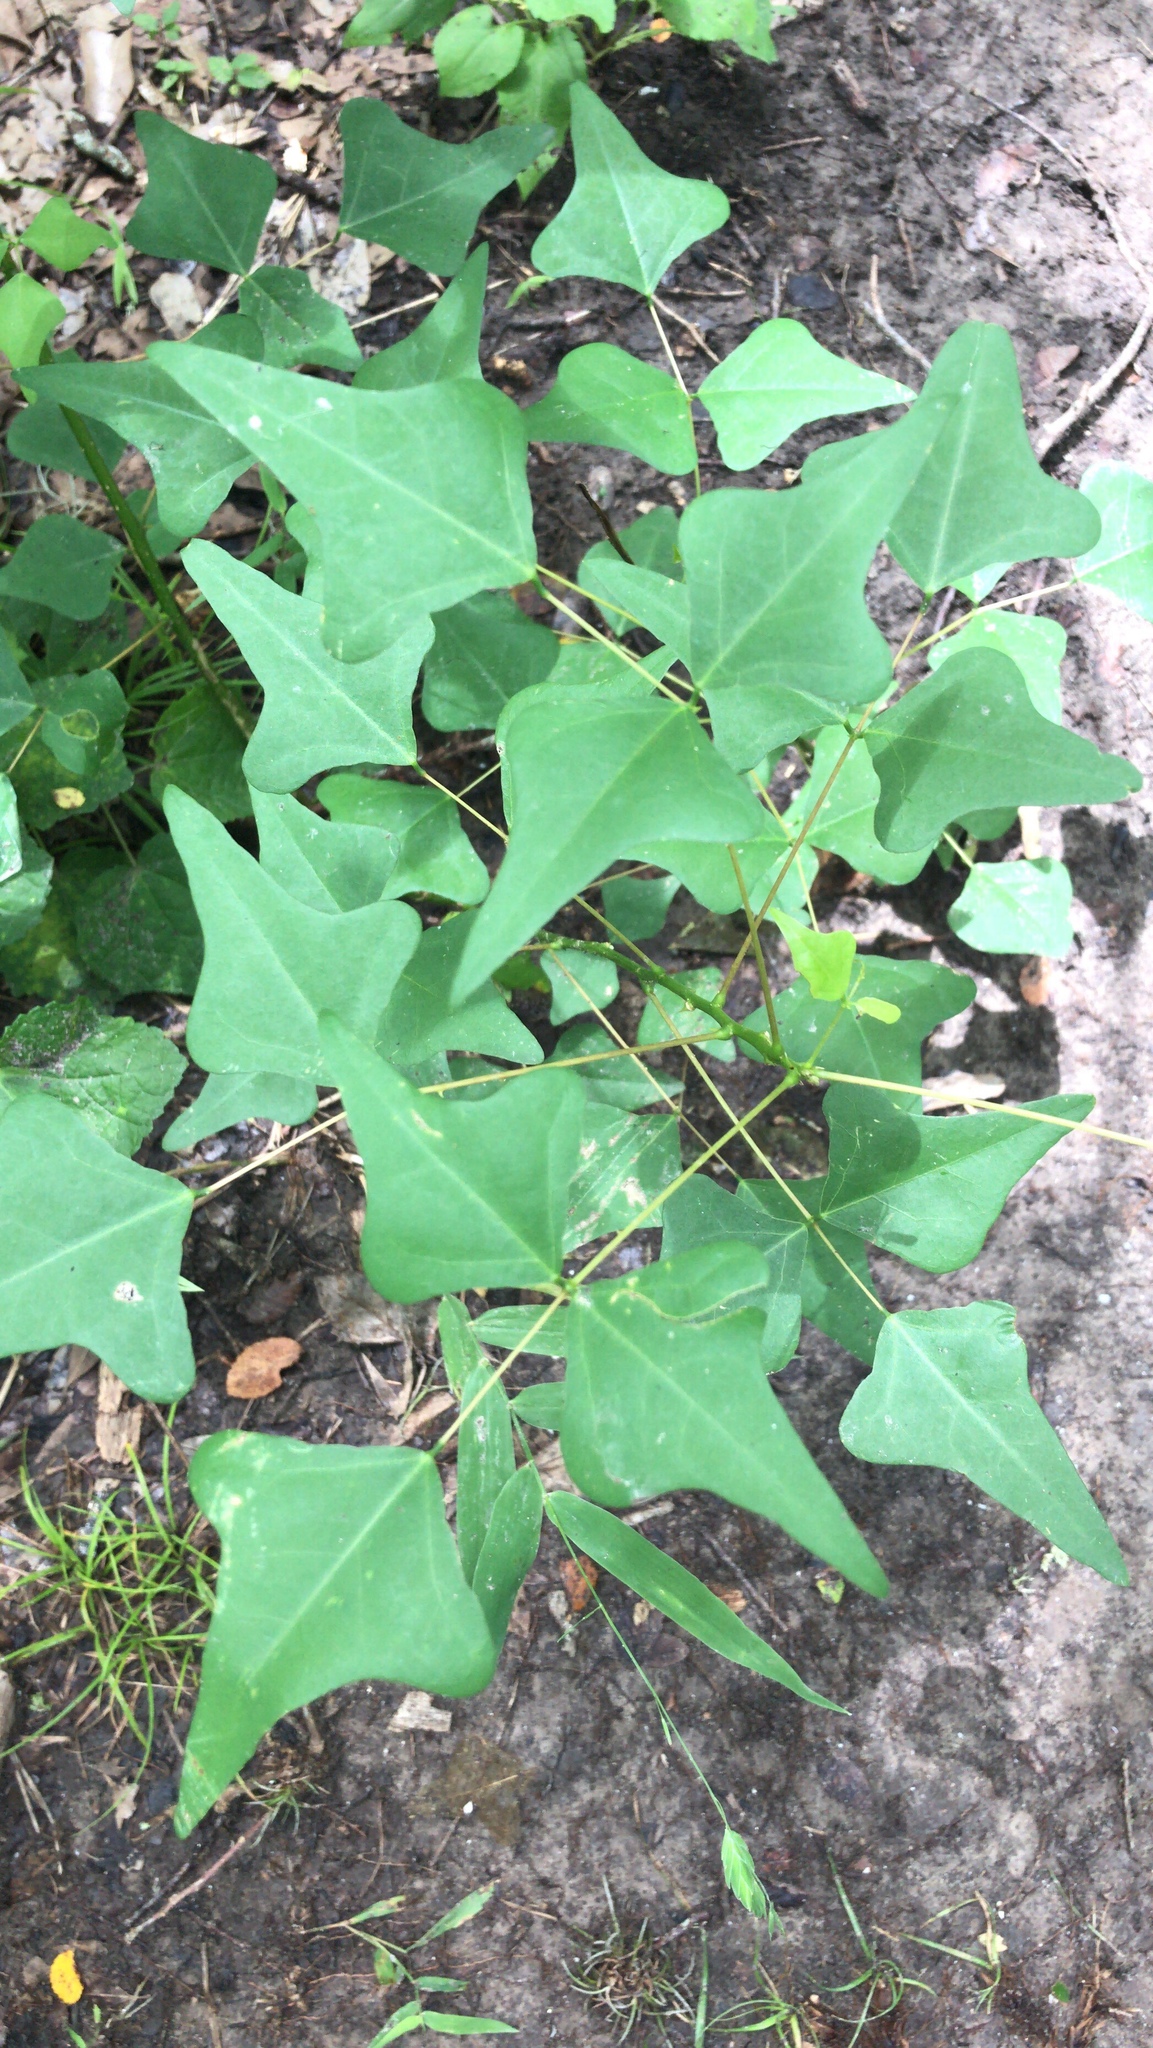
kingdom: Plantae
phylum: Tracheophyta
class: Magnoliopsida
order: Fabales
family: Fabaceae
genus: Erythrina
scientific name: Erythrina herbacea
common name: Coral-bean
